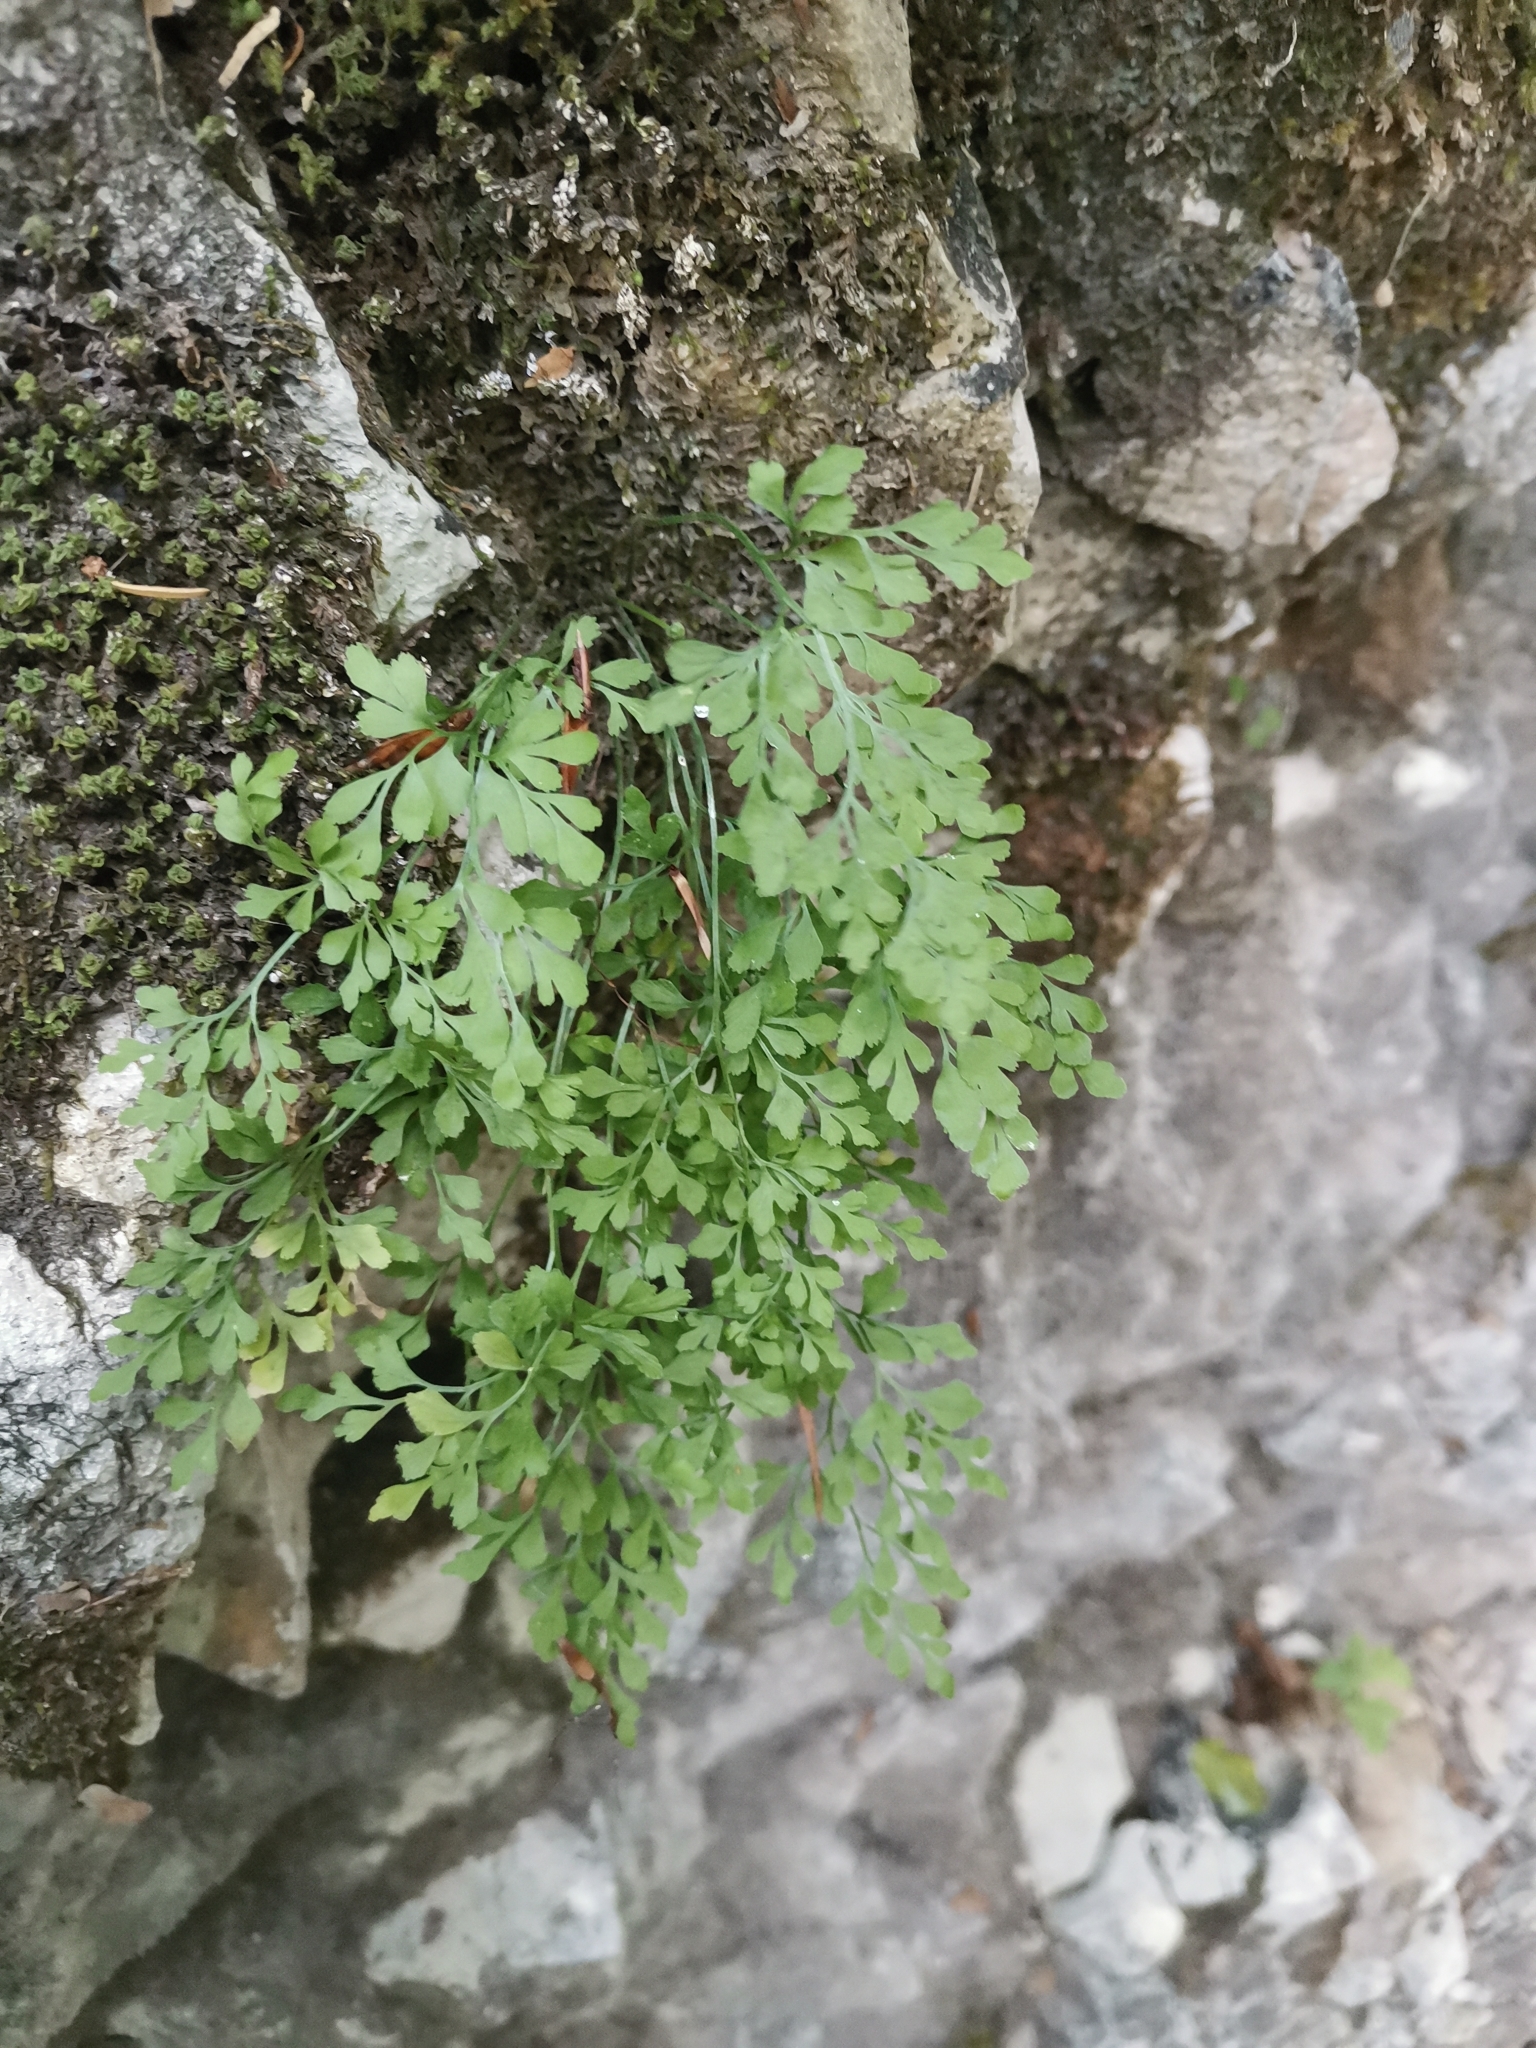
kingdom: Plantae
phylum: Tracheophyta
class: Polypodiopsida
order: Polypodiales
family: Aspleniaceae
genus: Asplenium
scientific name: Asplenium ruta-muraria
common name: Wall-rue
